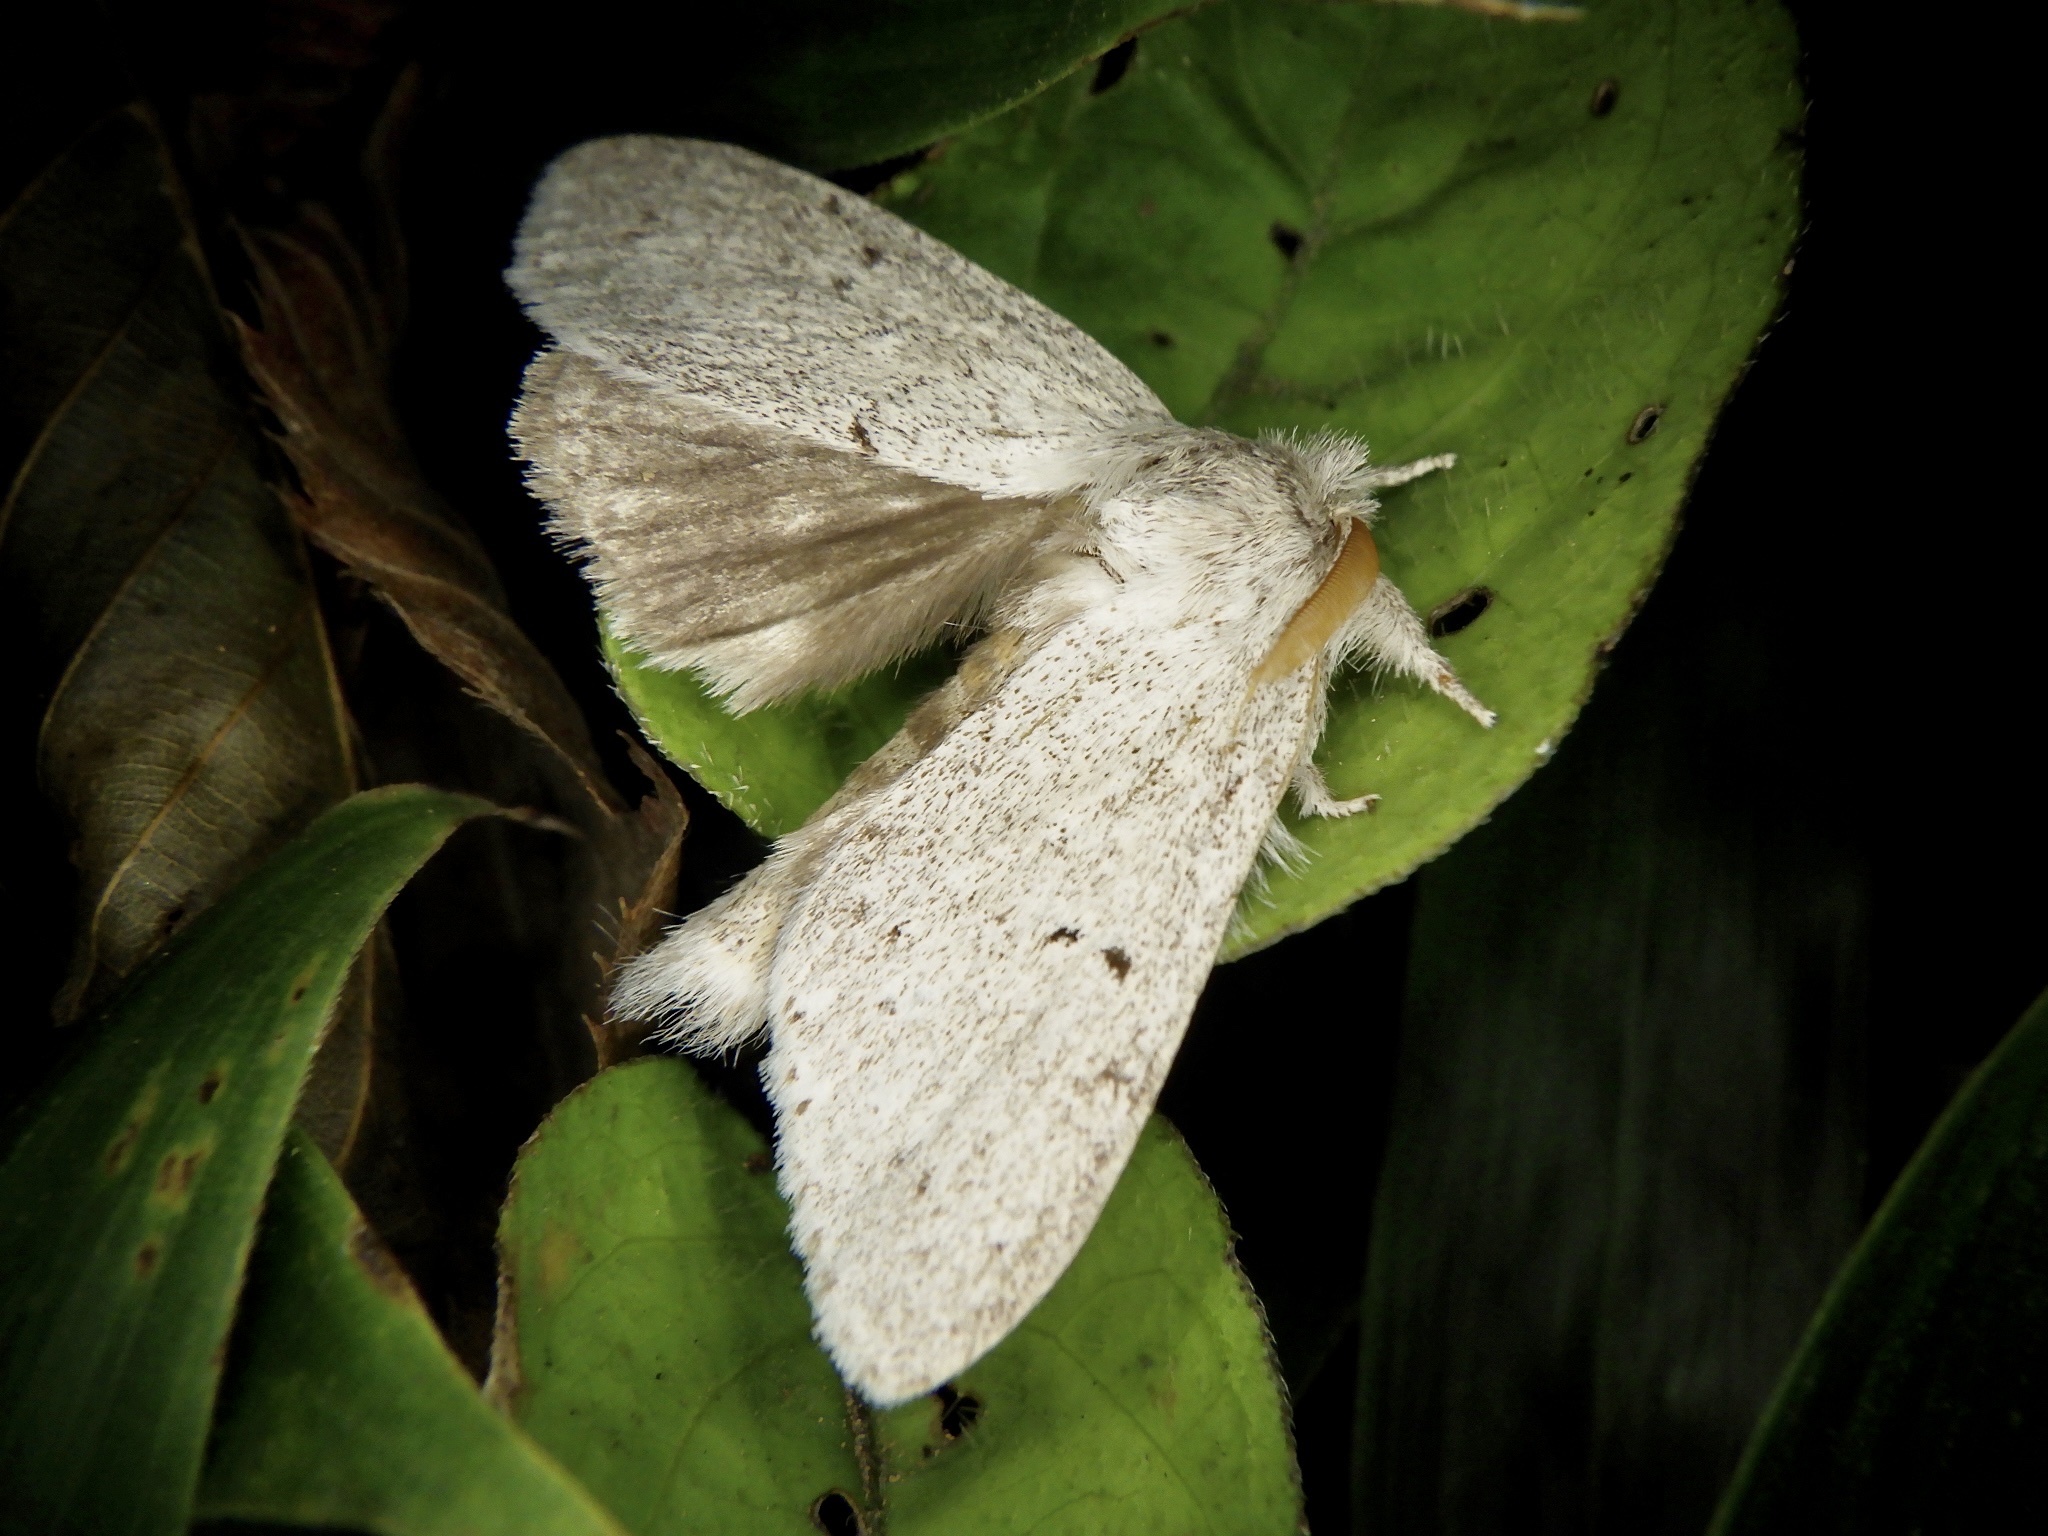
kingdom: Animalia
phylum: Arthropoda
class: Insecta
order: Lepidoptera
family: Notodontidae
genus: Cnethodonta
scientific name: Cnethodonta grisescens
